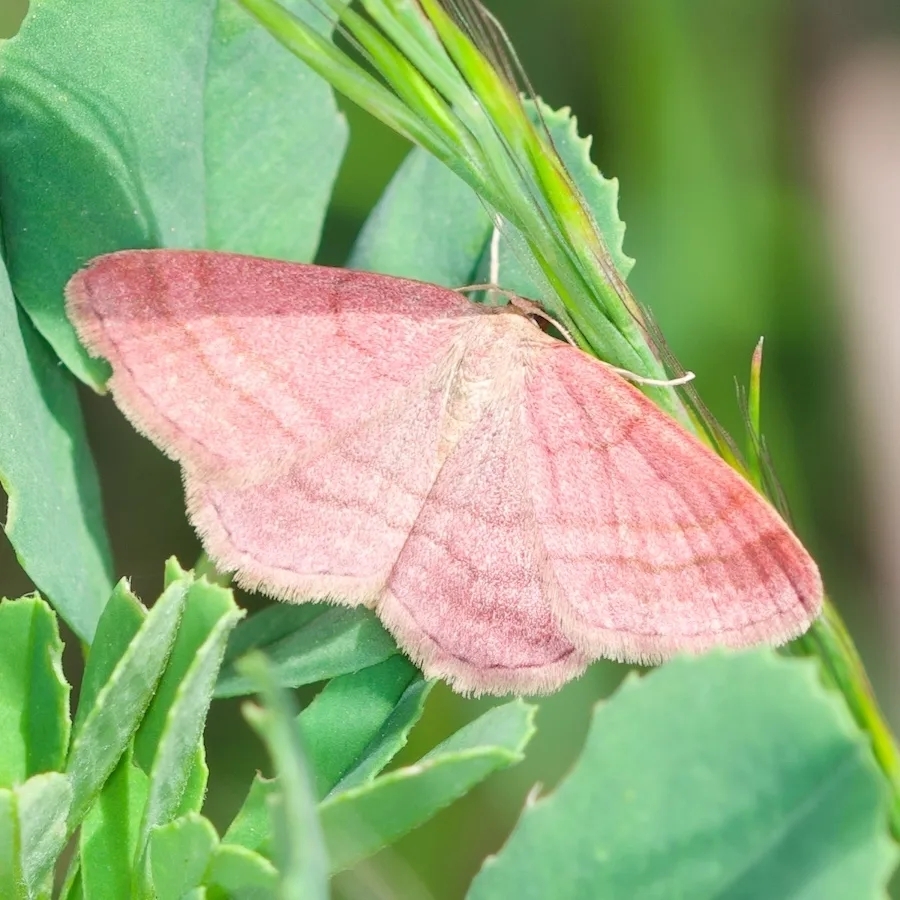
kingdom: Animalia
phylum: Arthropoda
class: Insecta
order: Lepidoptera
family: Geometridae
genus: Scopula
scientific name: Scopula rubiginata
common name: Tawny wave
